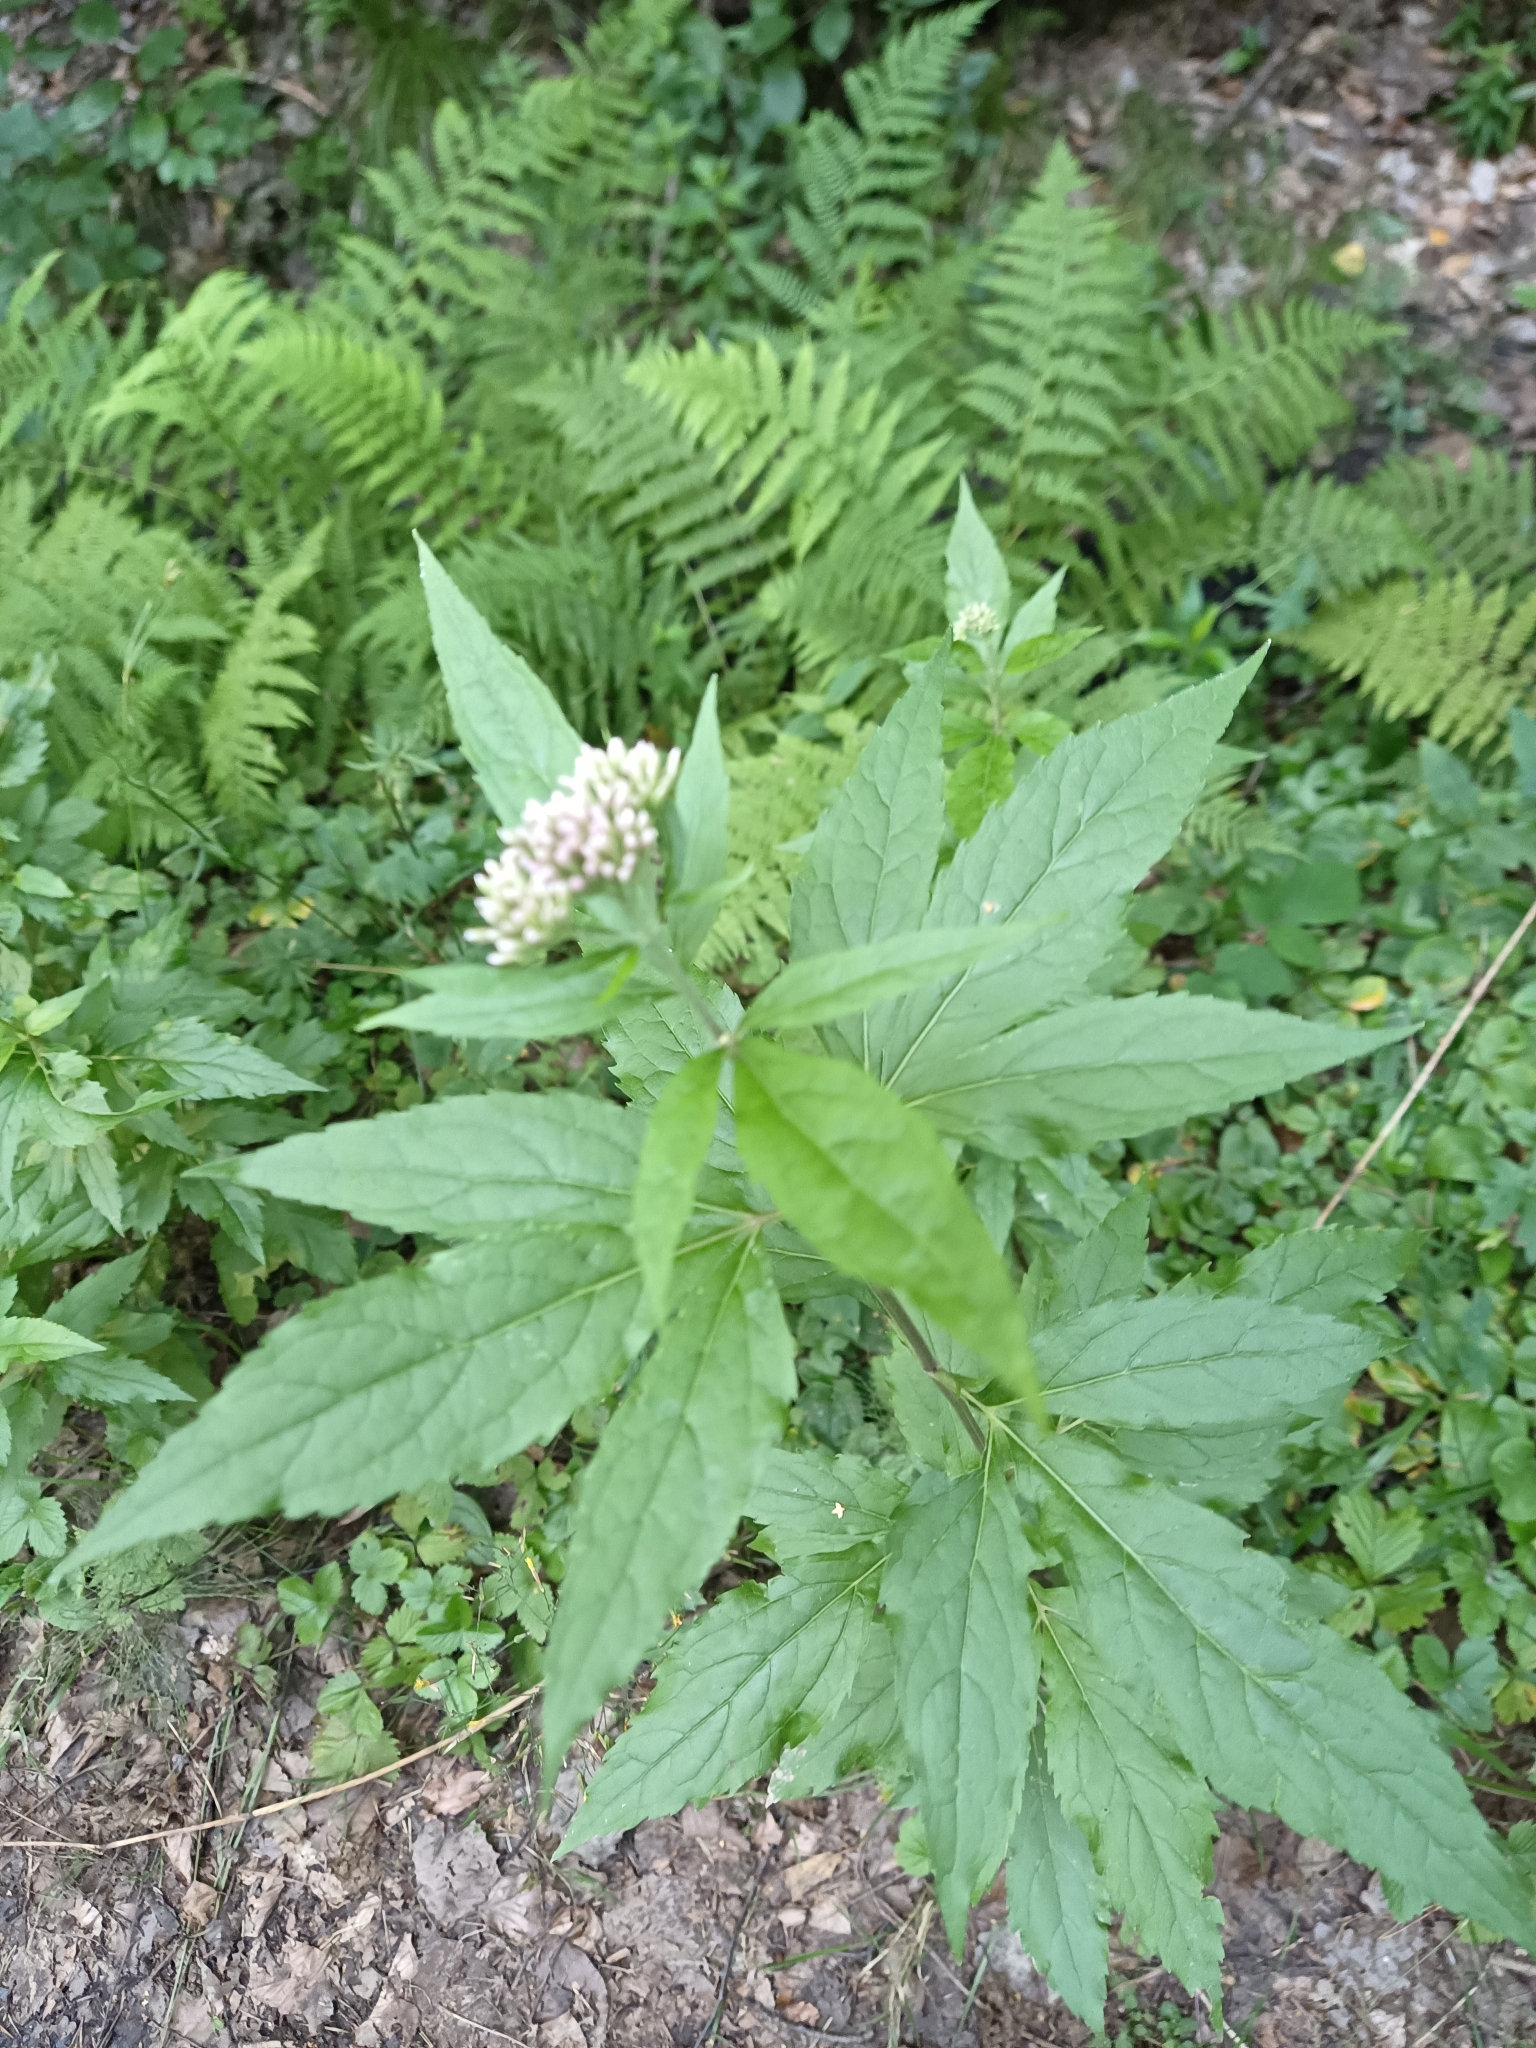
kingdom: Plantae
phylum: Tracheophyta
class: Magnoliopsida
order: Asterales
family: Asteraceae
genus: Eupatorium
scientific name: Eupatorium formosanum
